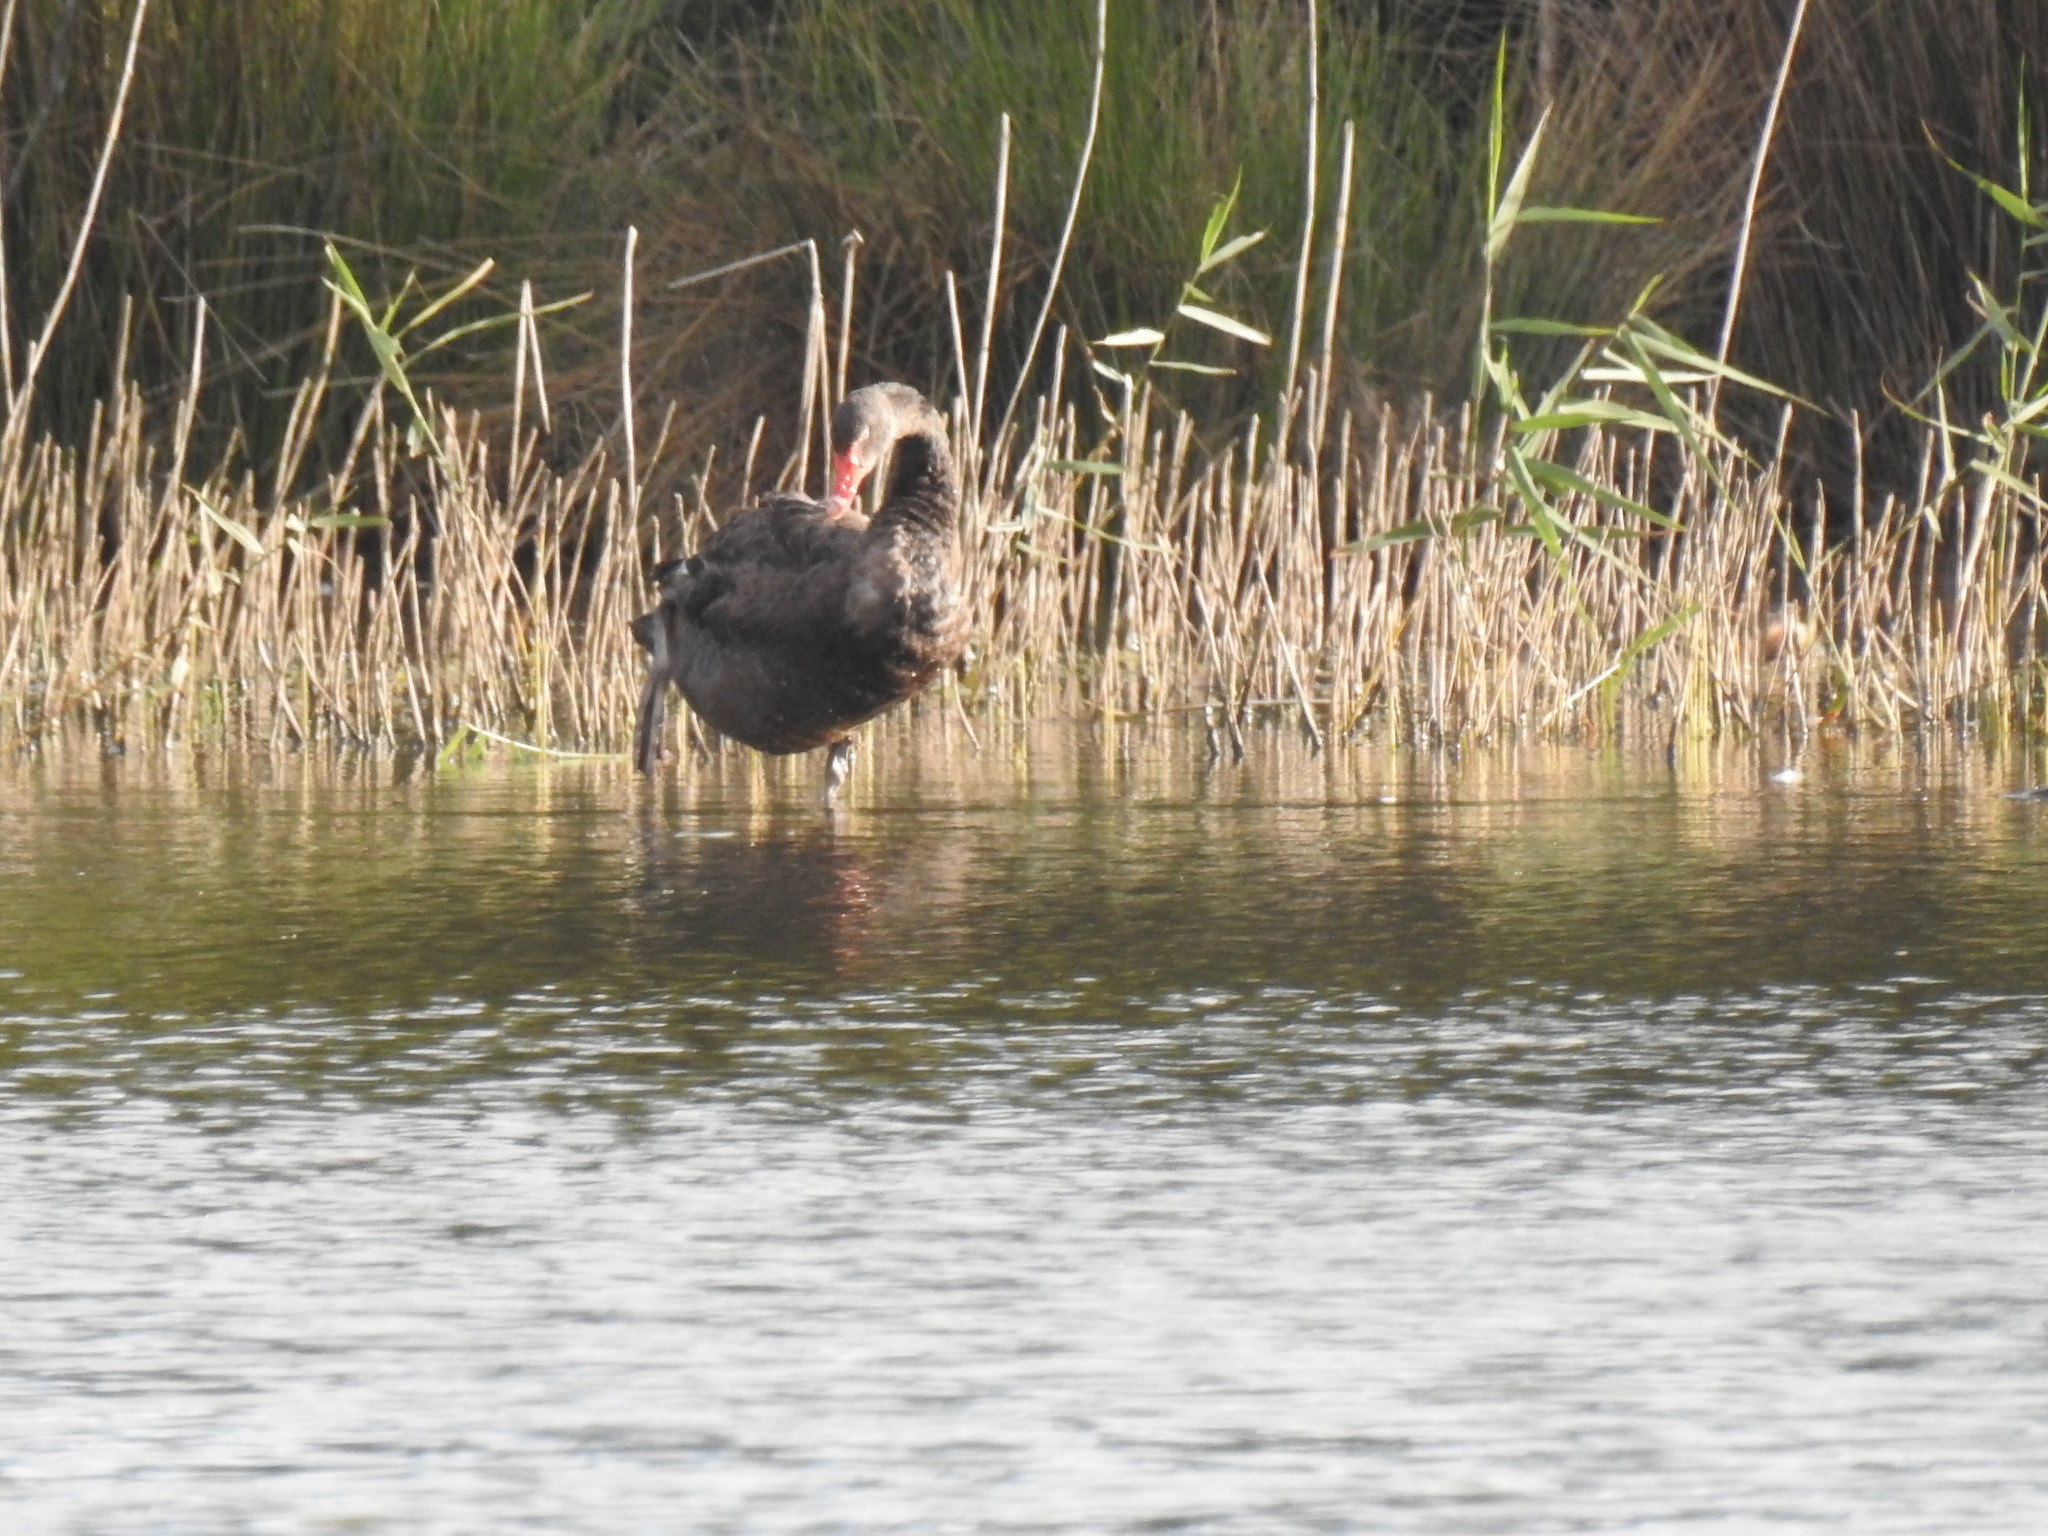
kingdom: Animalia
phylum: Chordata
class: Aves
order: Anseriformes
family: Anatidae
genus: Cygnus
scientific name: Cygnus atratus
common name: Black swan
